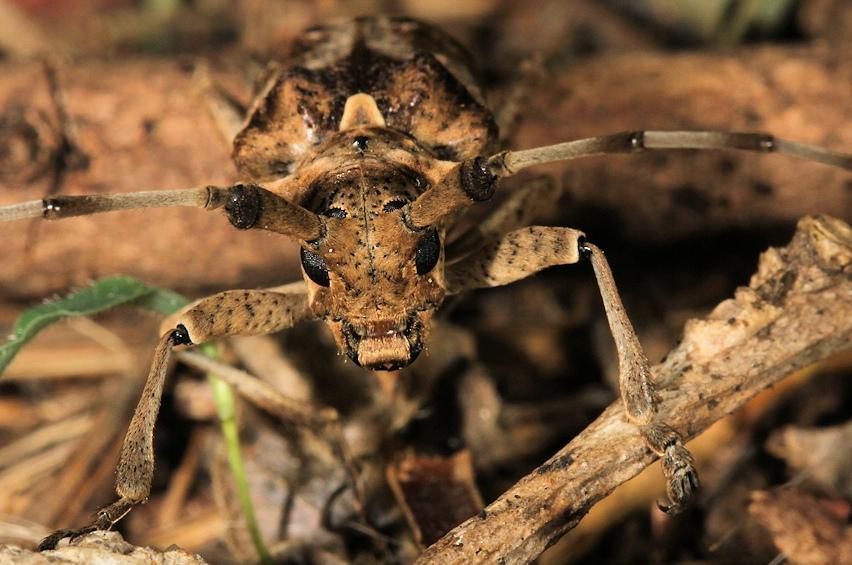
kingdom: Animalia
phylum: Arthropoda
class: Insecta
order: Coleoptera
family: Cerambycidae
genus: Monochamus
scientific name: Monochamus spectabilis
